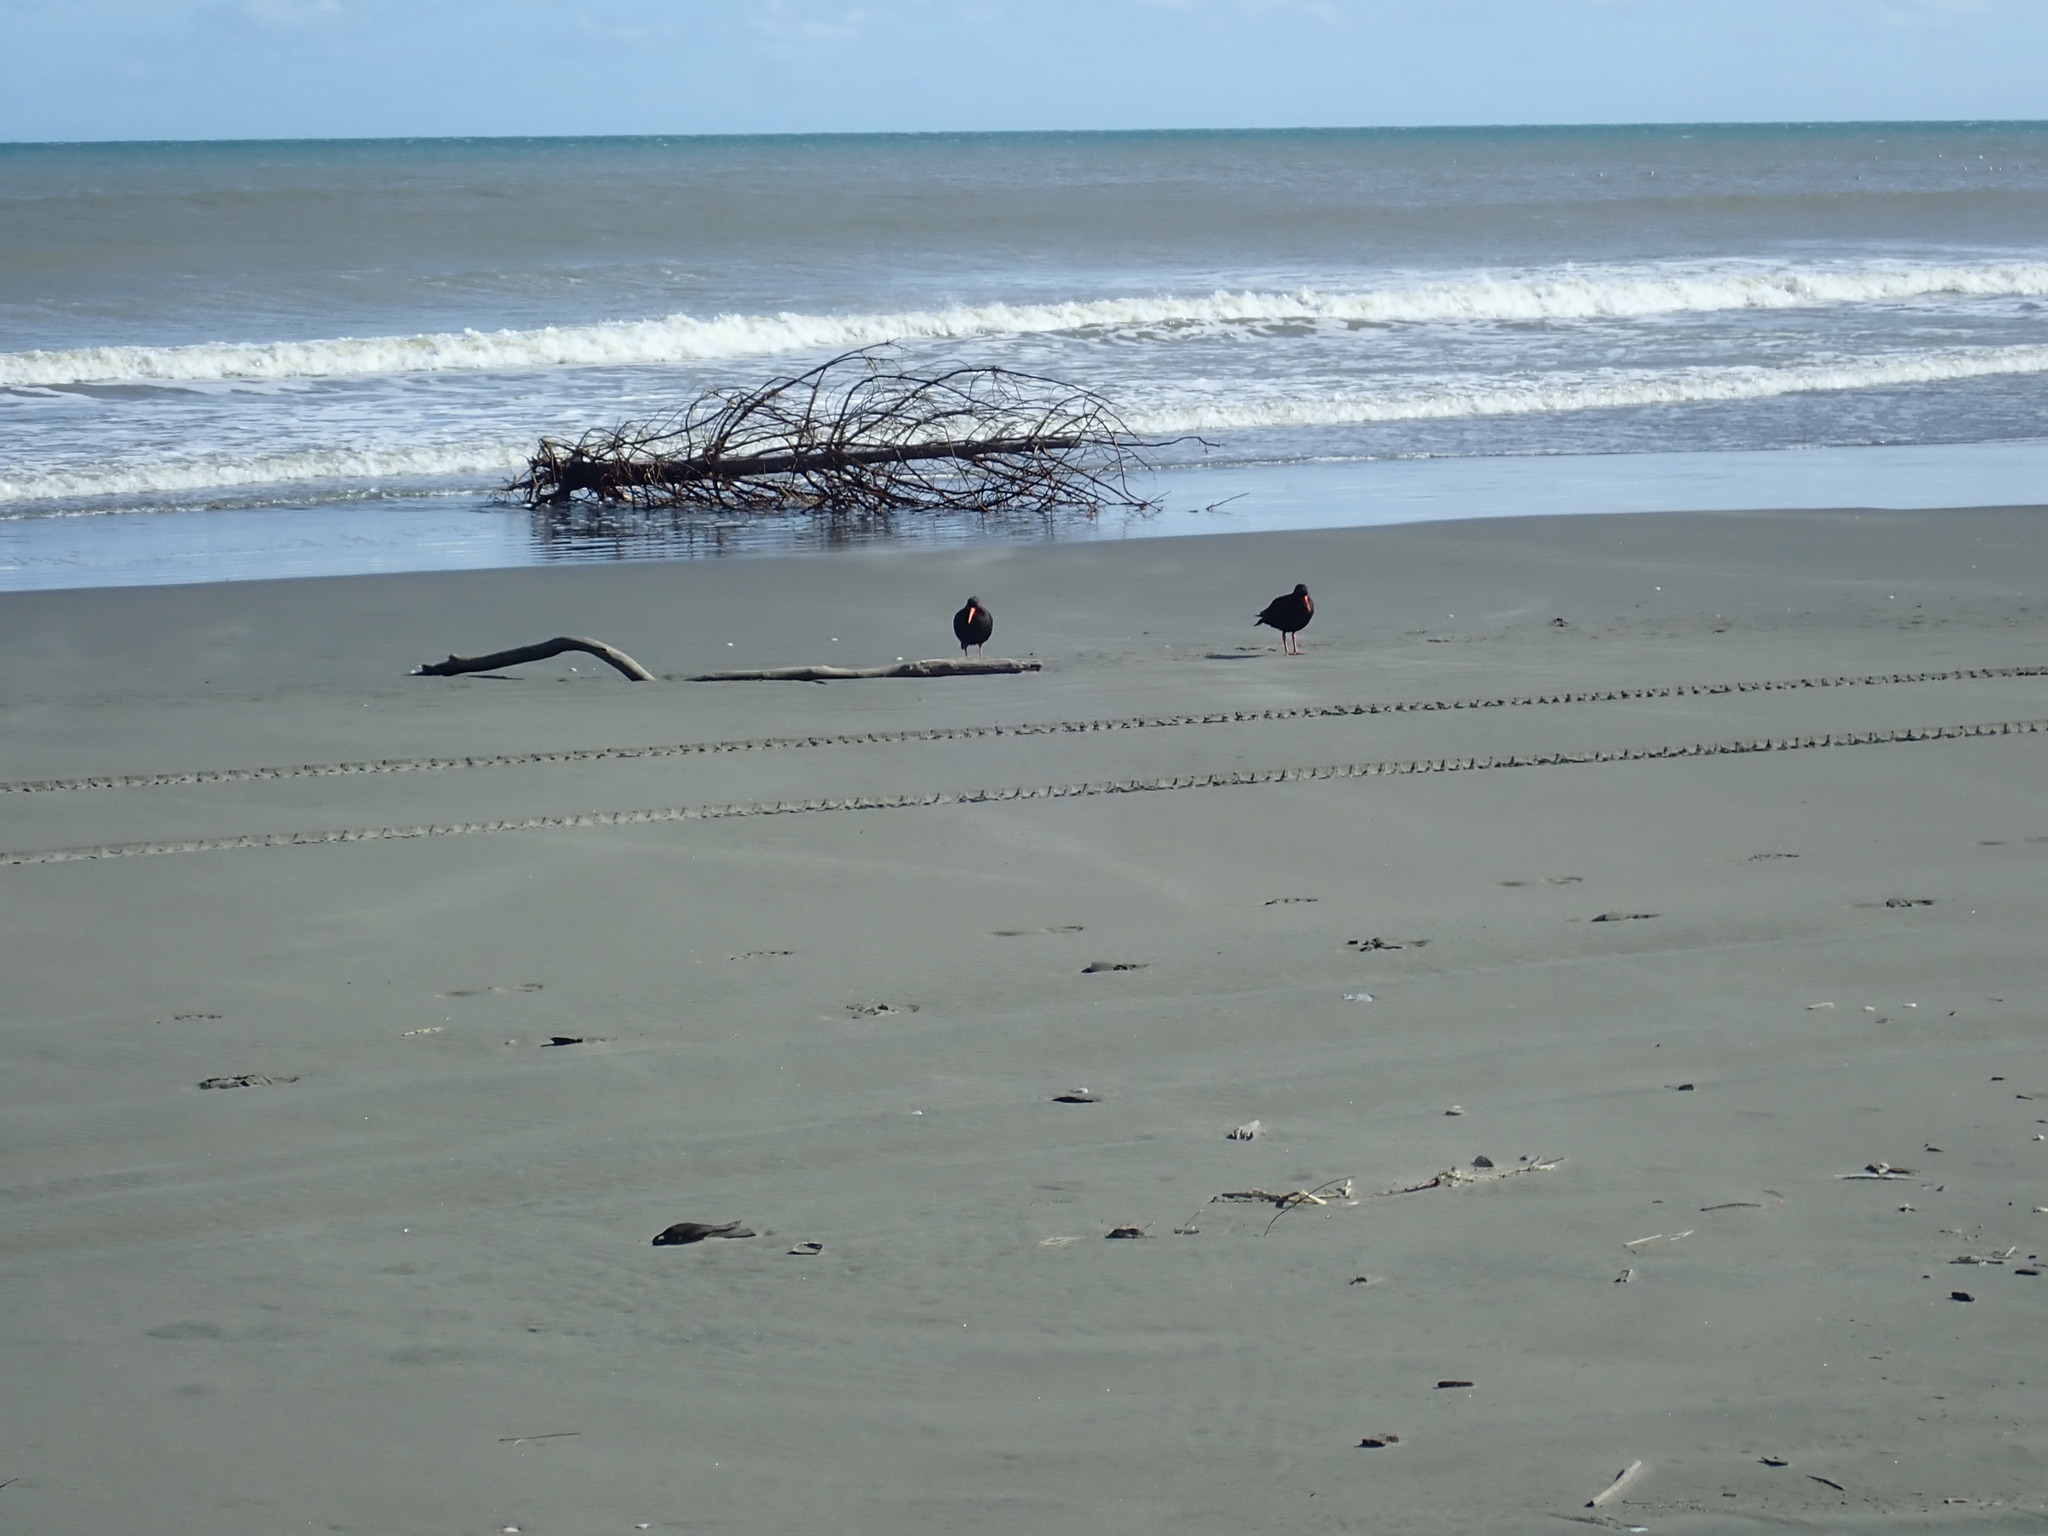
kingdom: Animalia
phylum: Chordata
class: Aves
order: Charadriiformes
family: Haematopodidae
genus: Haematopus
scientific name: Haematopus unicolor
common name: Variable oystercatcher
